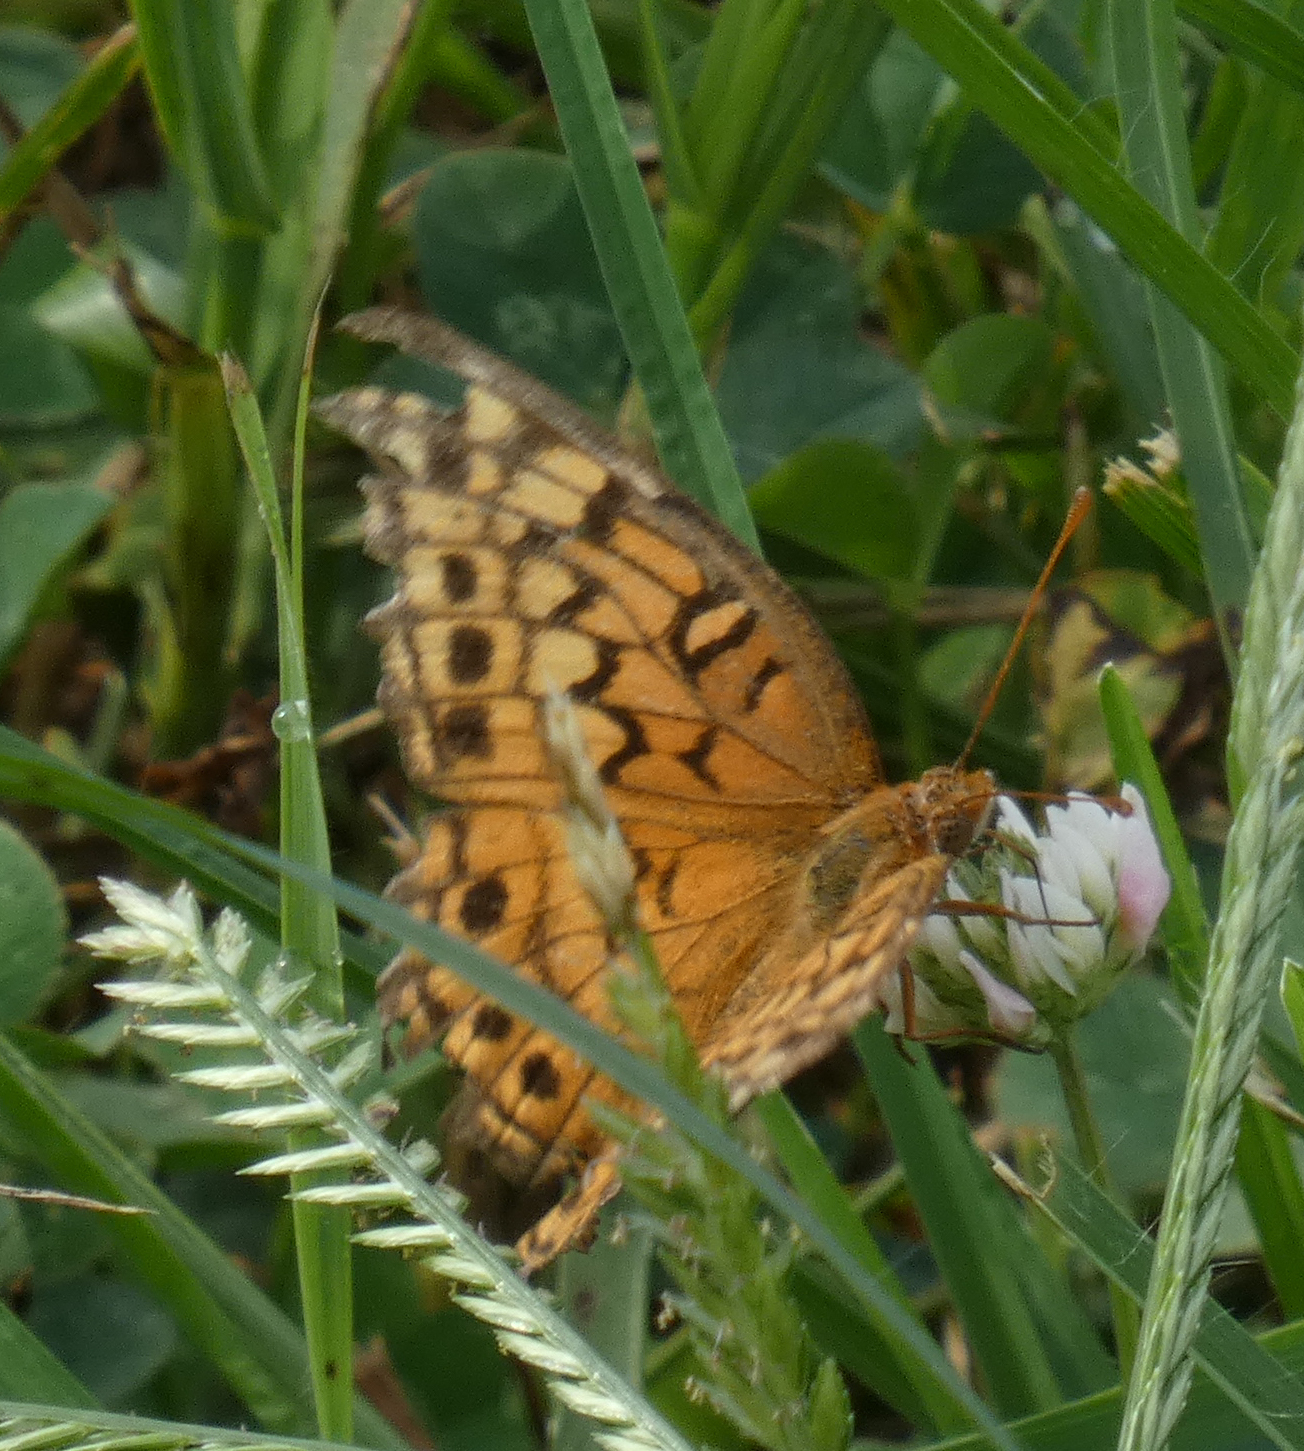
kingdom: Animalia
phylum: Arthropoda
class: Insecta
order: Lepidoptera
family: Nymphalidae
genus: Euptoieta
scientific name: Euptoieta claudia
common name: Variegated fritillary
